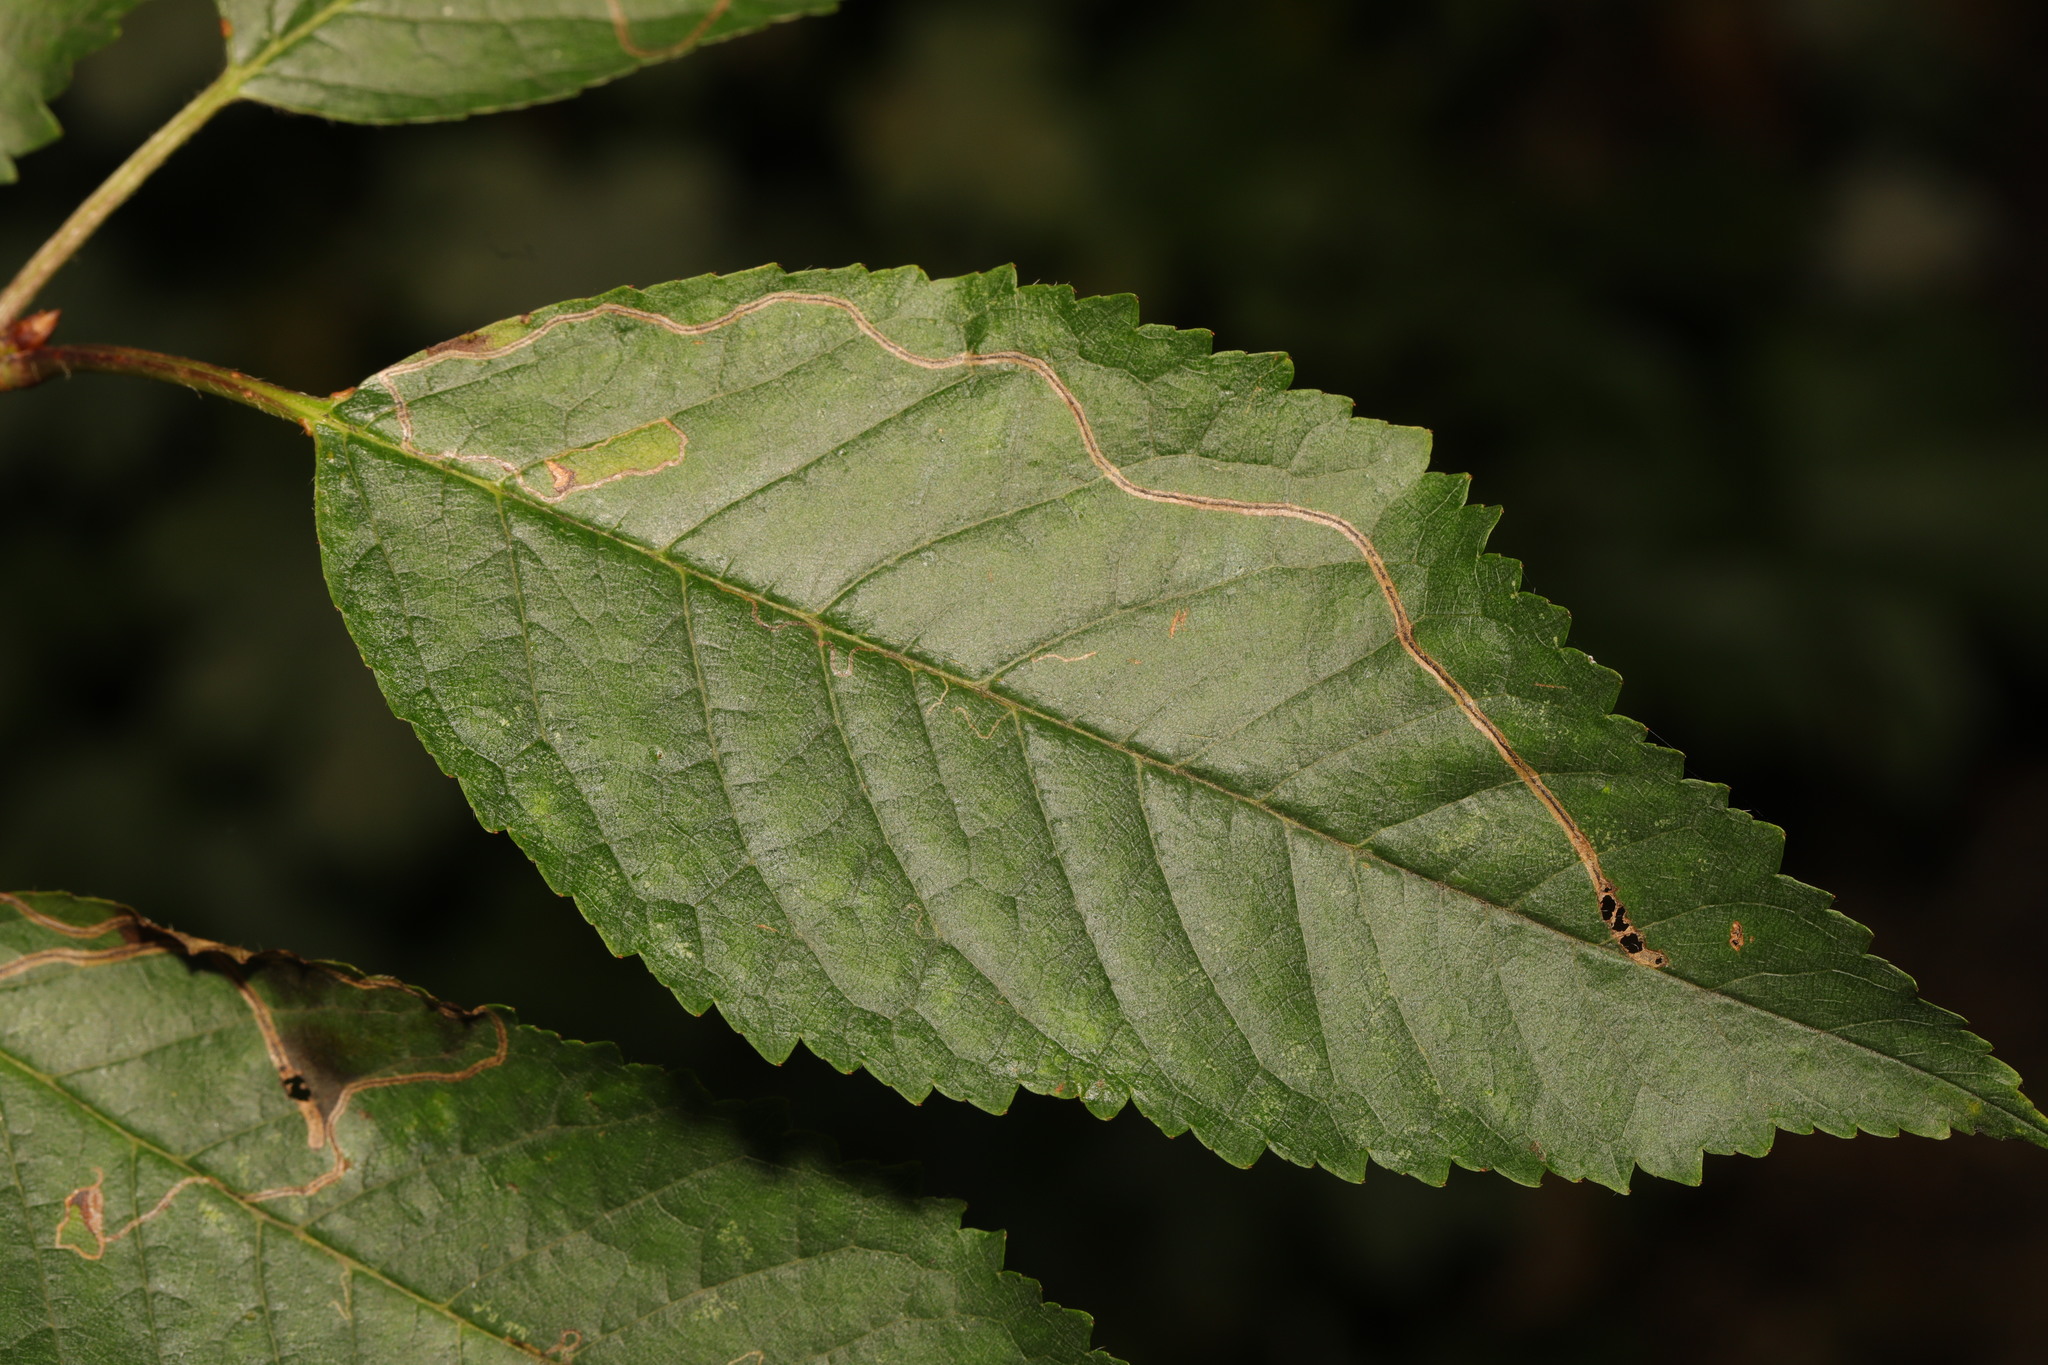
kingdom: Animalia
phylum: Arthropoda
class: Insecta
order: Lepidoptera
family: Lyonetiidae
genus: Lyonetia
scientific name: Lyonetia clerkella
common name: Apple leaf miner
